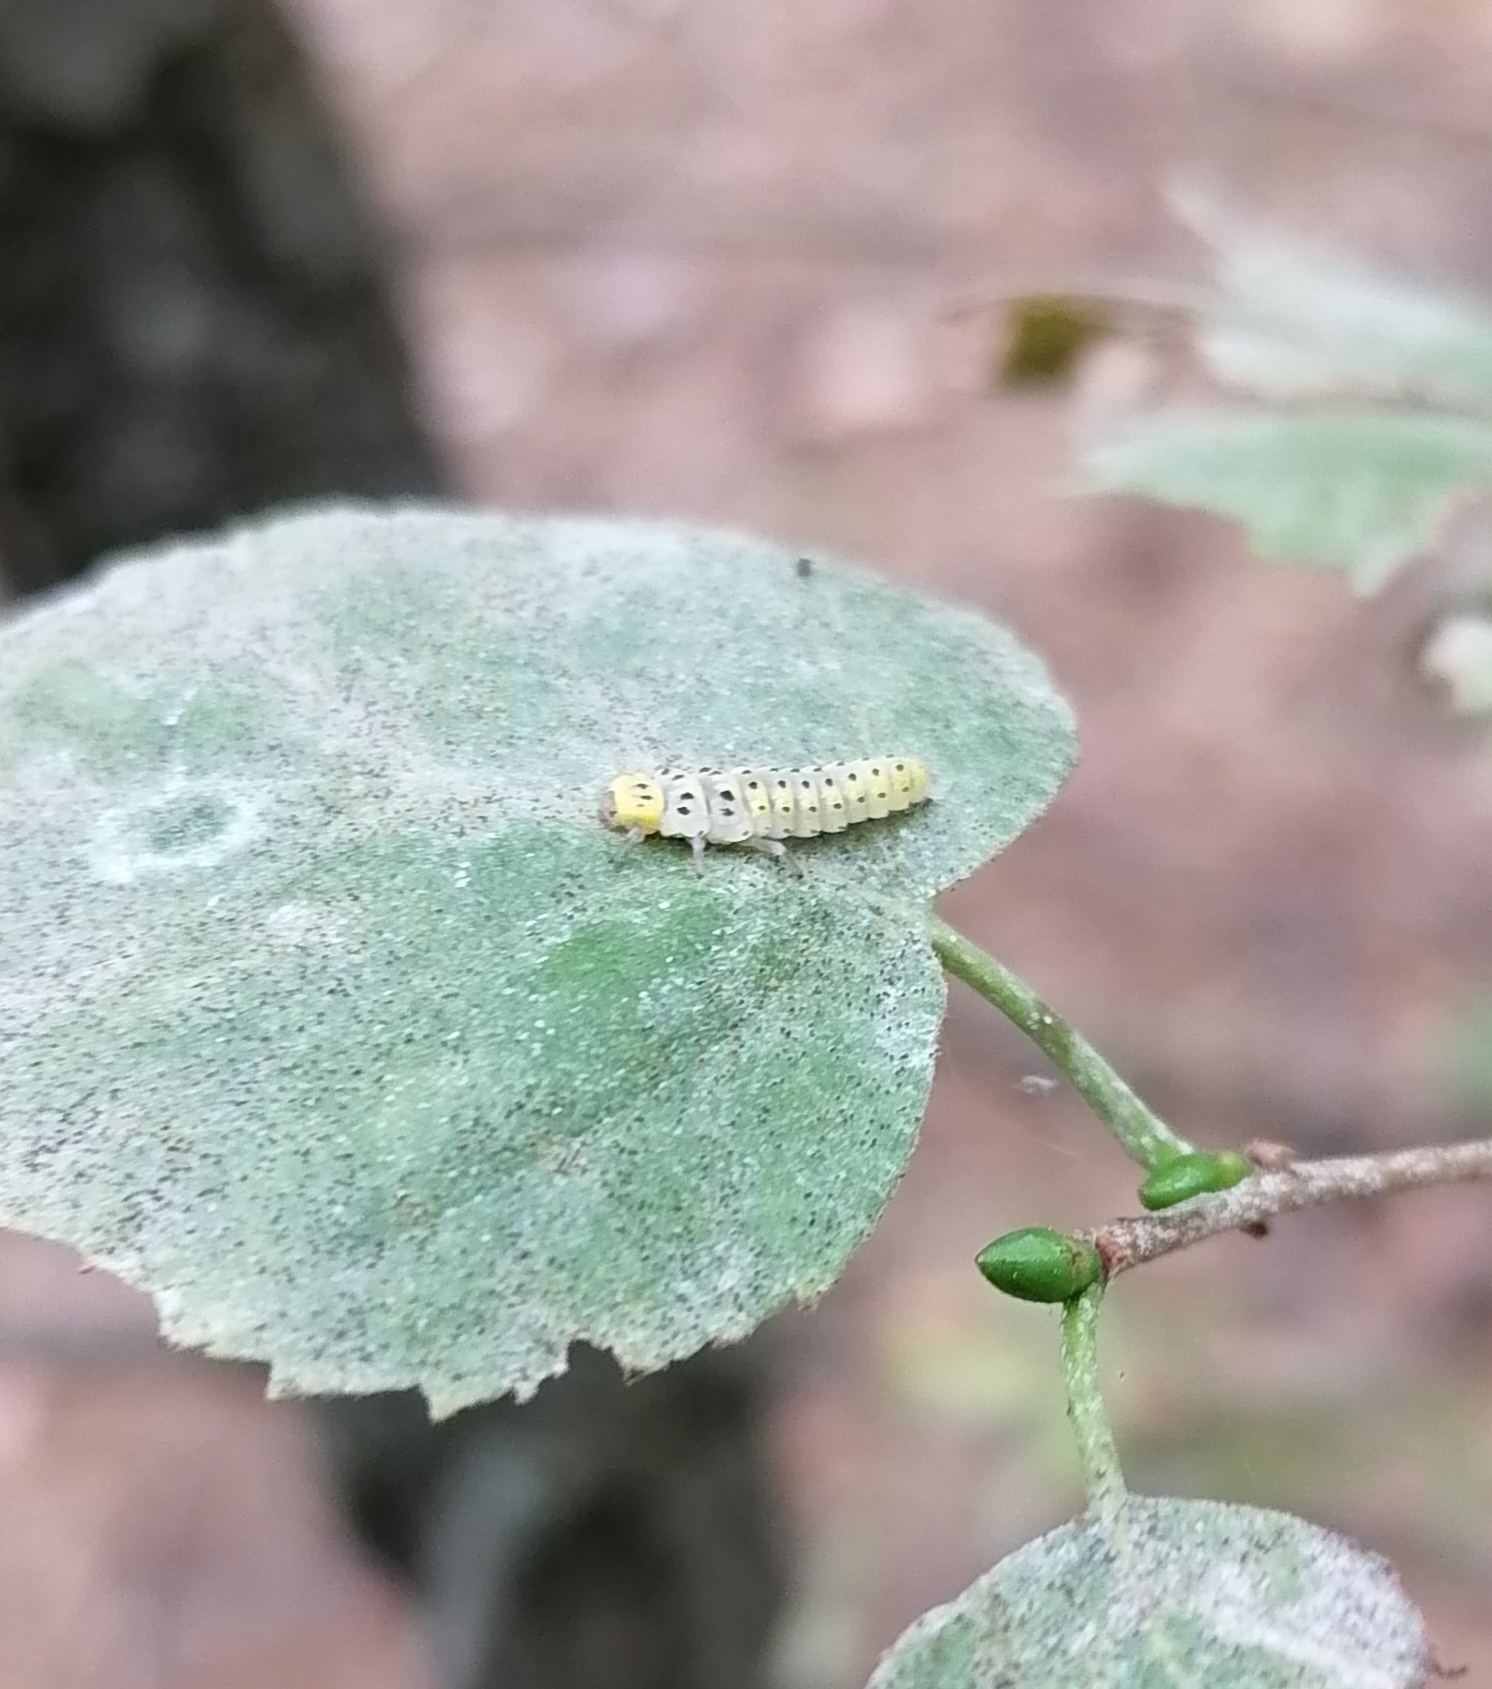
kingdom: Animalia
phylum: Arthropoda
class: Insecta
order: Coleoptera
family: Coccinellidae
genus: Halyzia
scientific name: Halyzia sedecimguttata
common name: Orange ladybird
